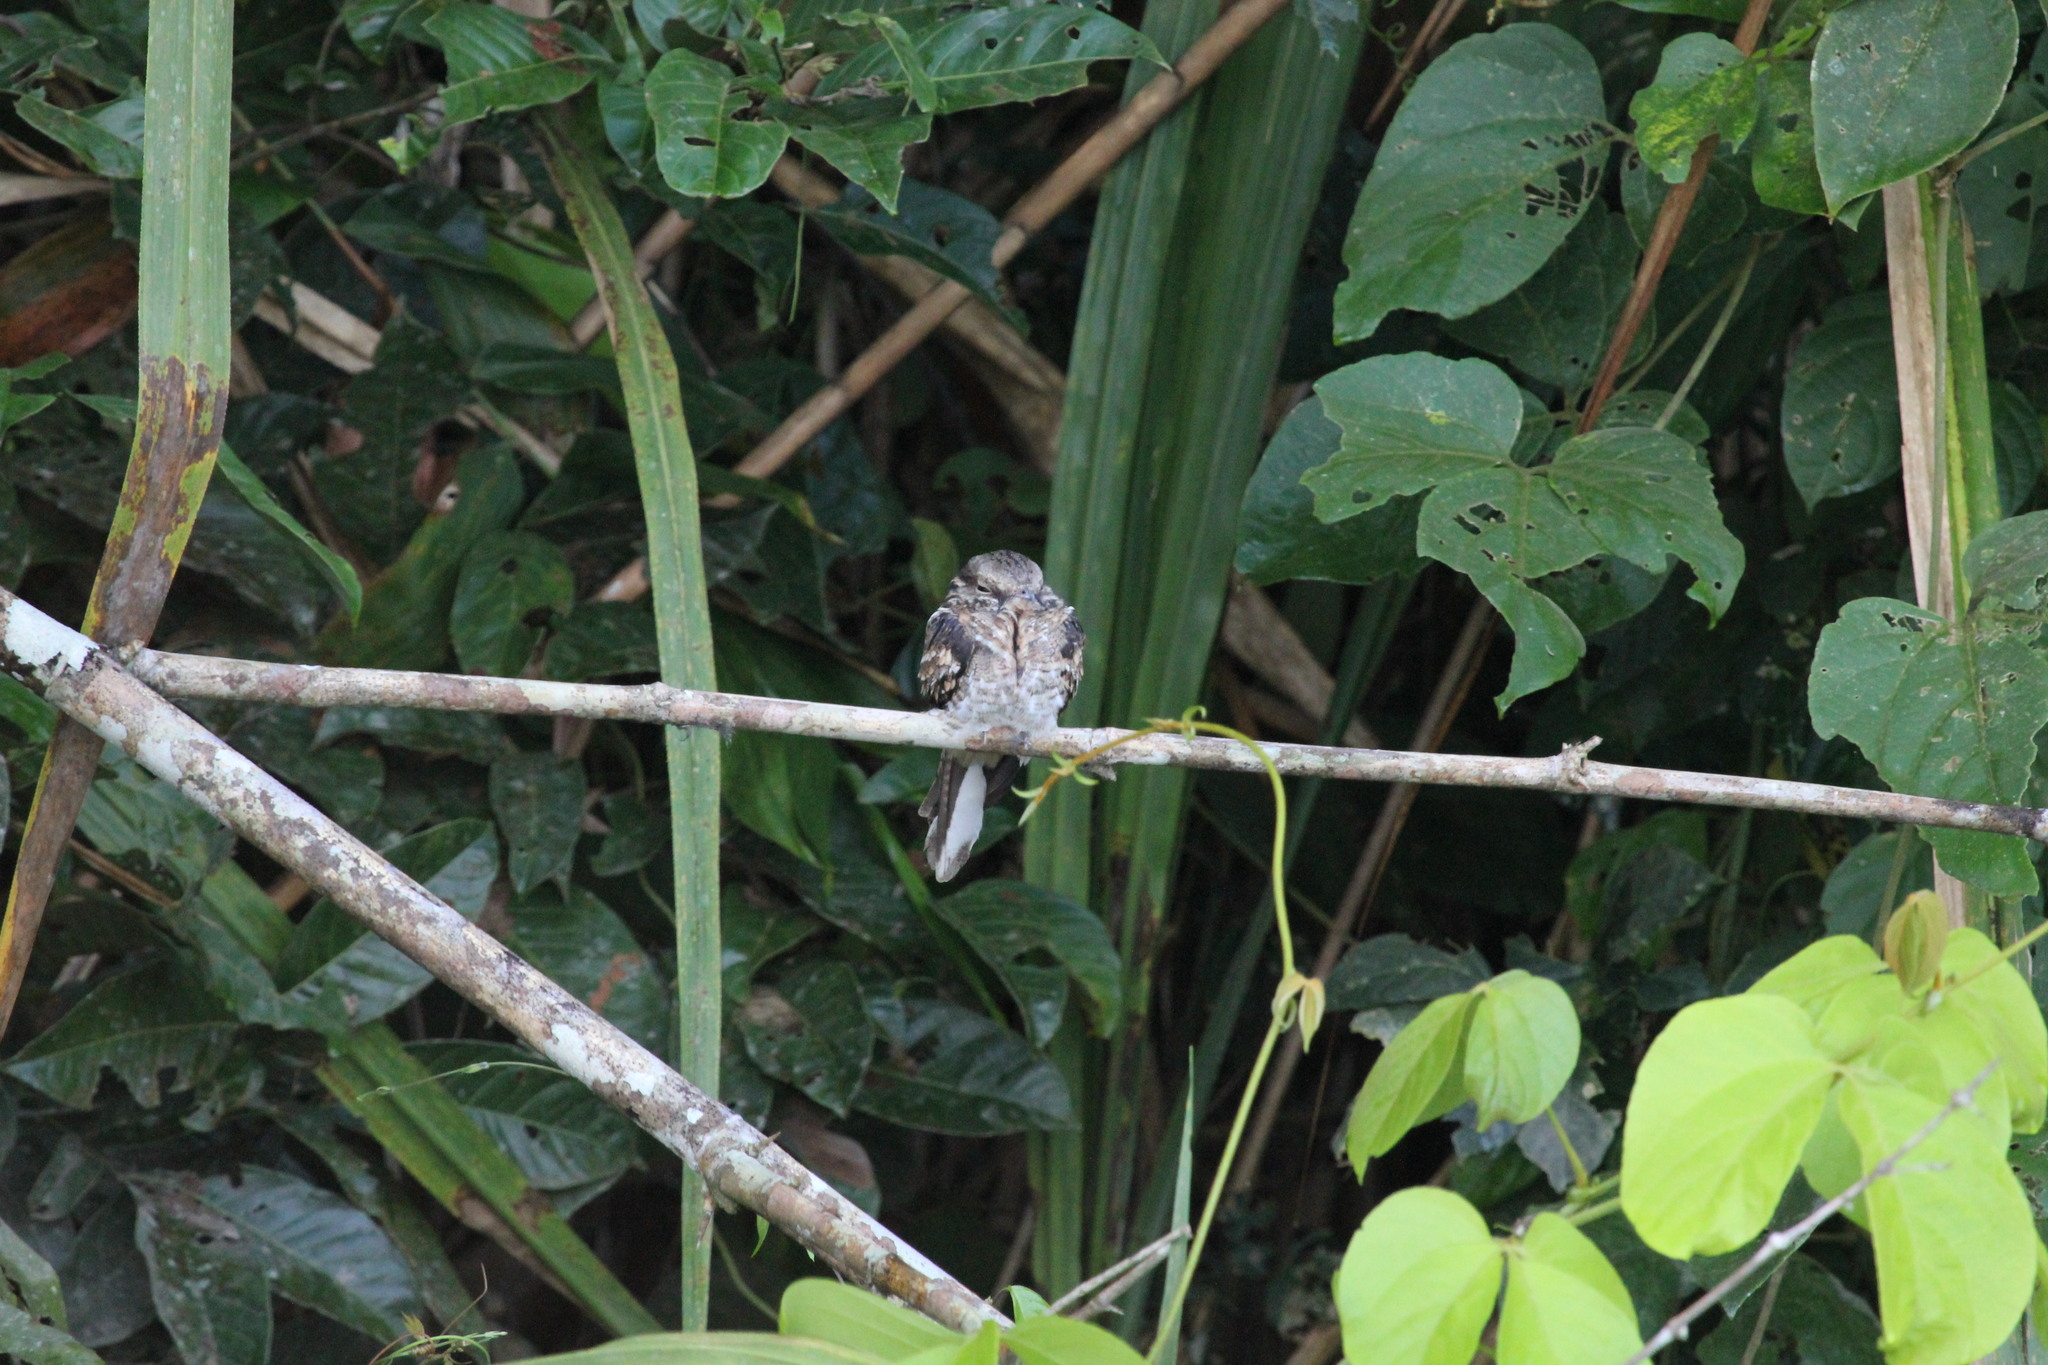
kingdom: Animalia
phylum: Chordata
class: Aves
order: Caprimulgiformes
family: Caprimulgidae
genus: Hydropsalis
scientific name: Hydropsalis climacocerca
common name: Ladder-tailed nightjar
